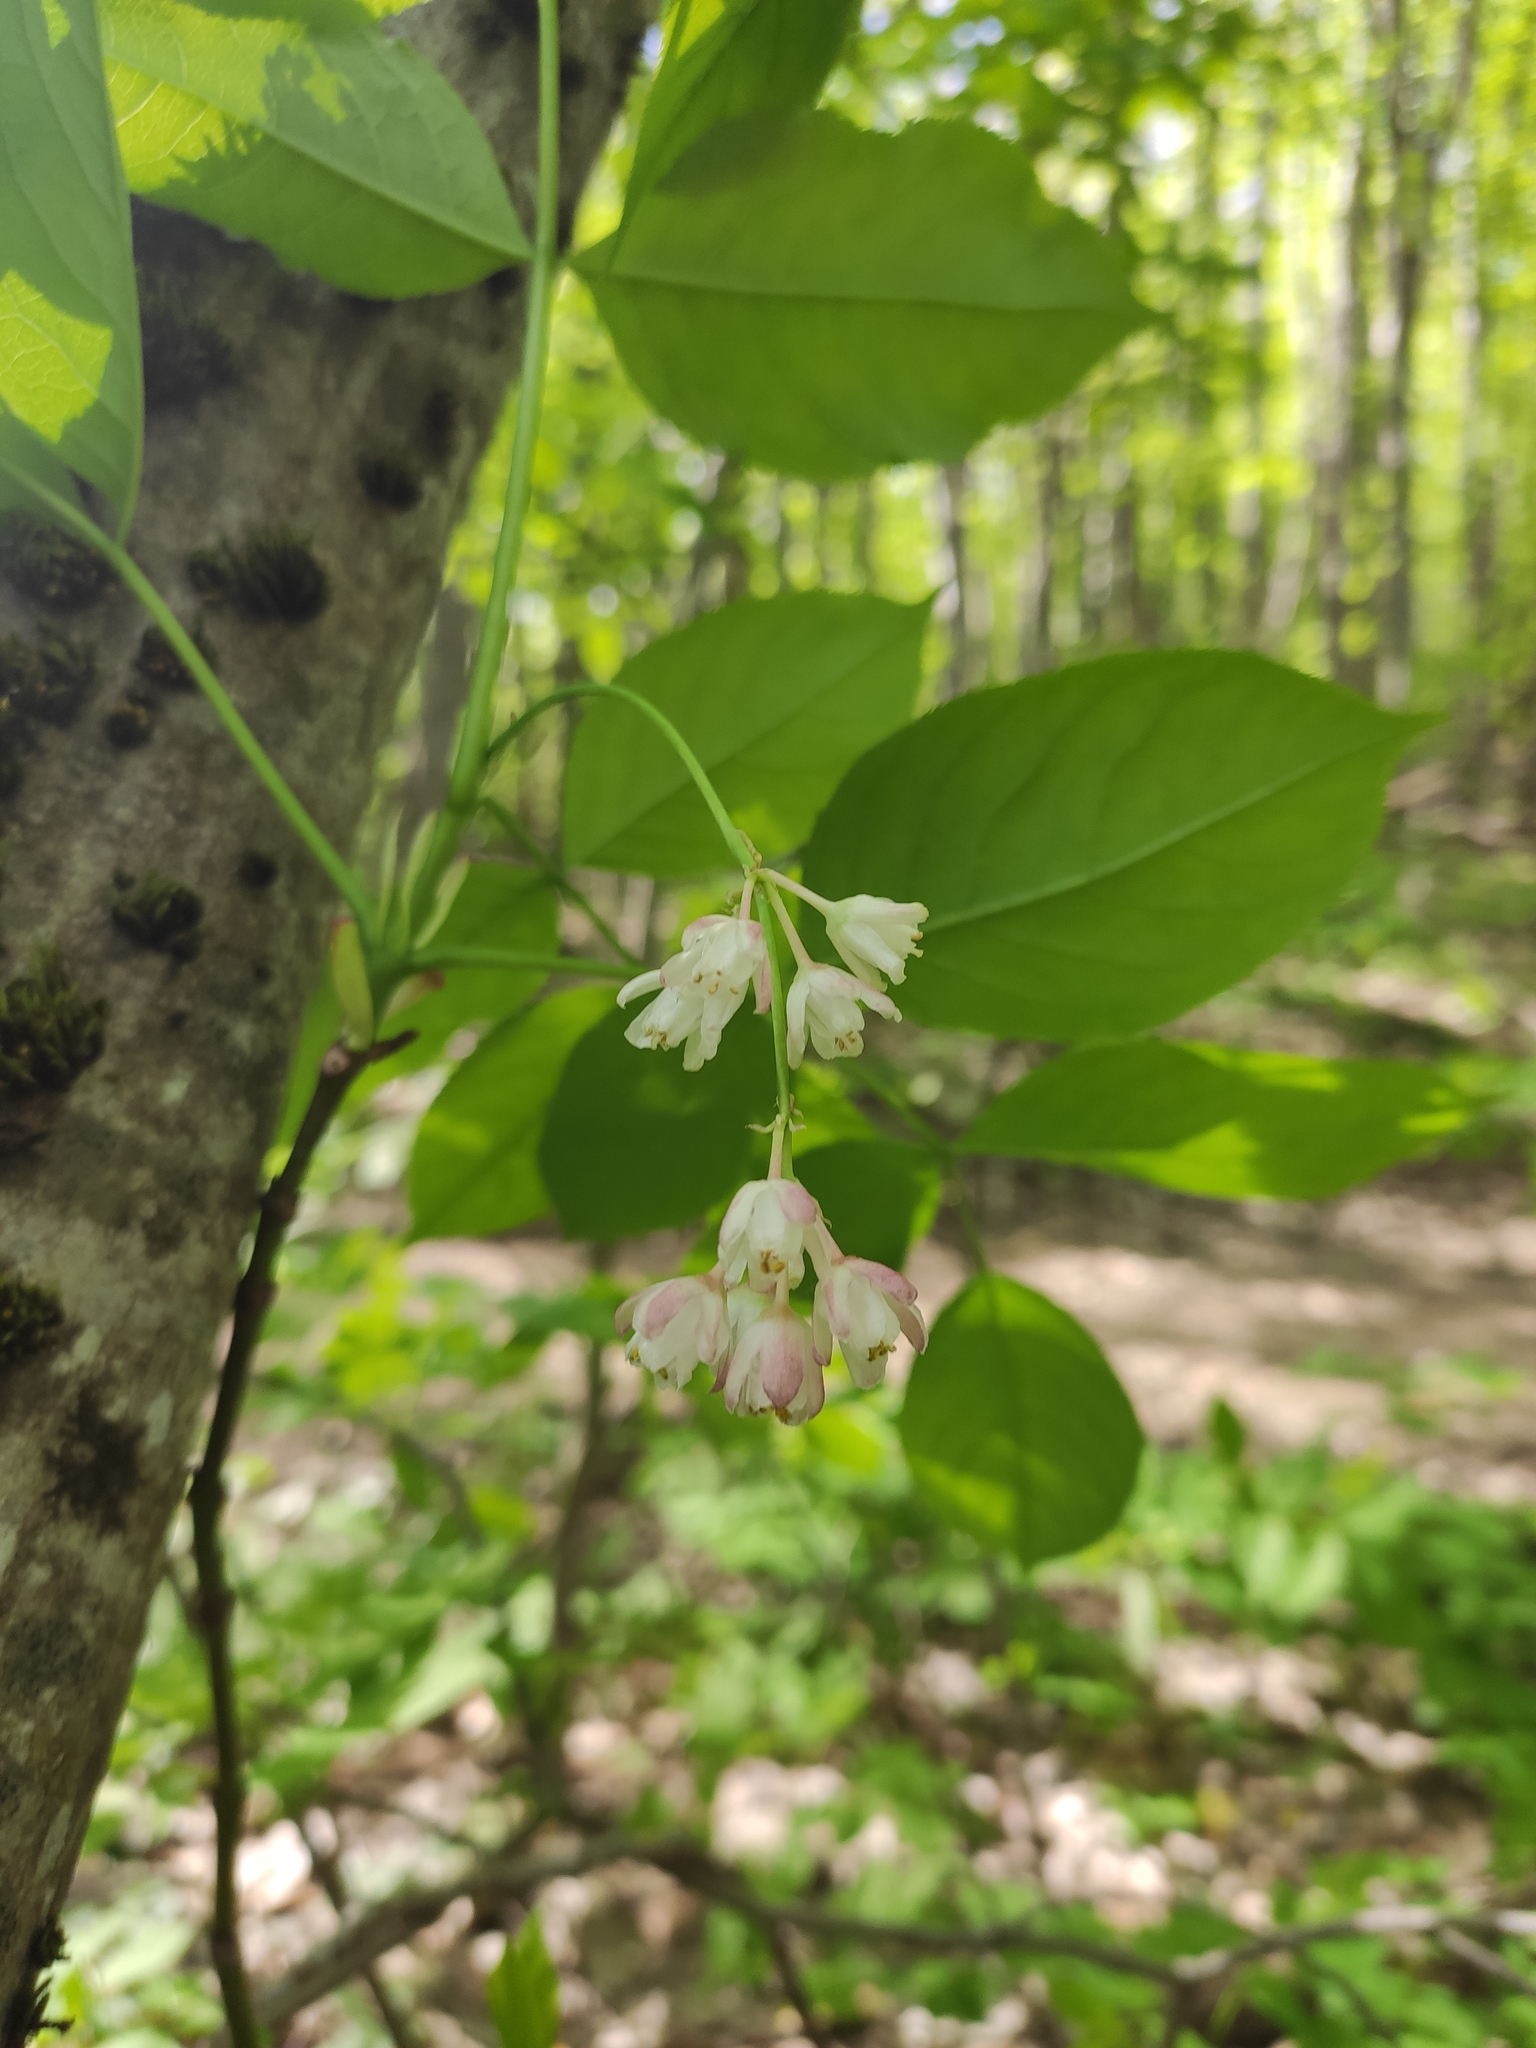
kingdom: Plantae
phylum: Tracheophyta
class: Magnoliopsida
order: Crossosomatales
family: Staphyleaceae
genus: Staphylea
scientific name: Staphylea pinnata
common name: Bladdernut
